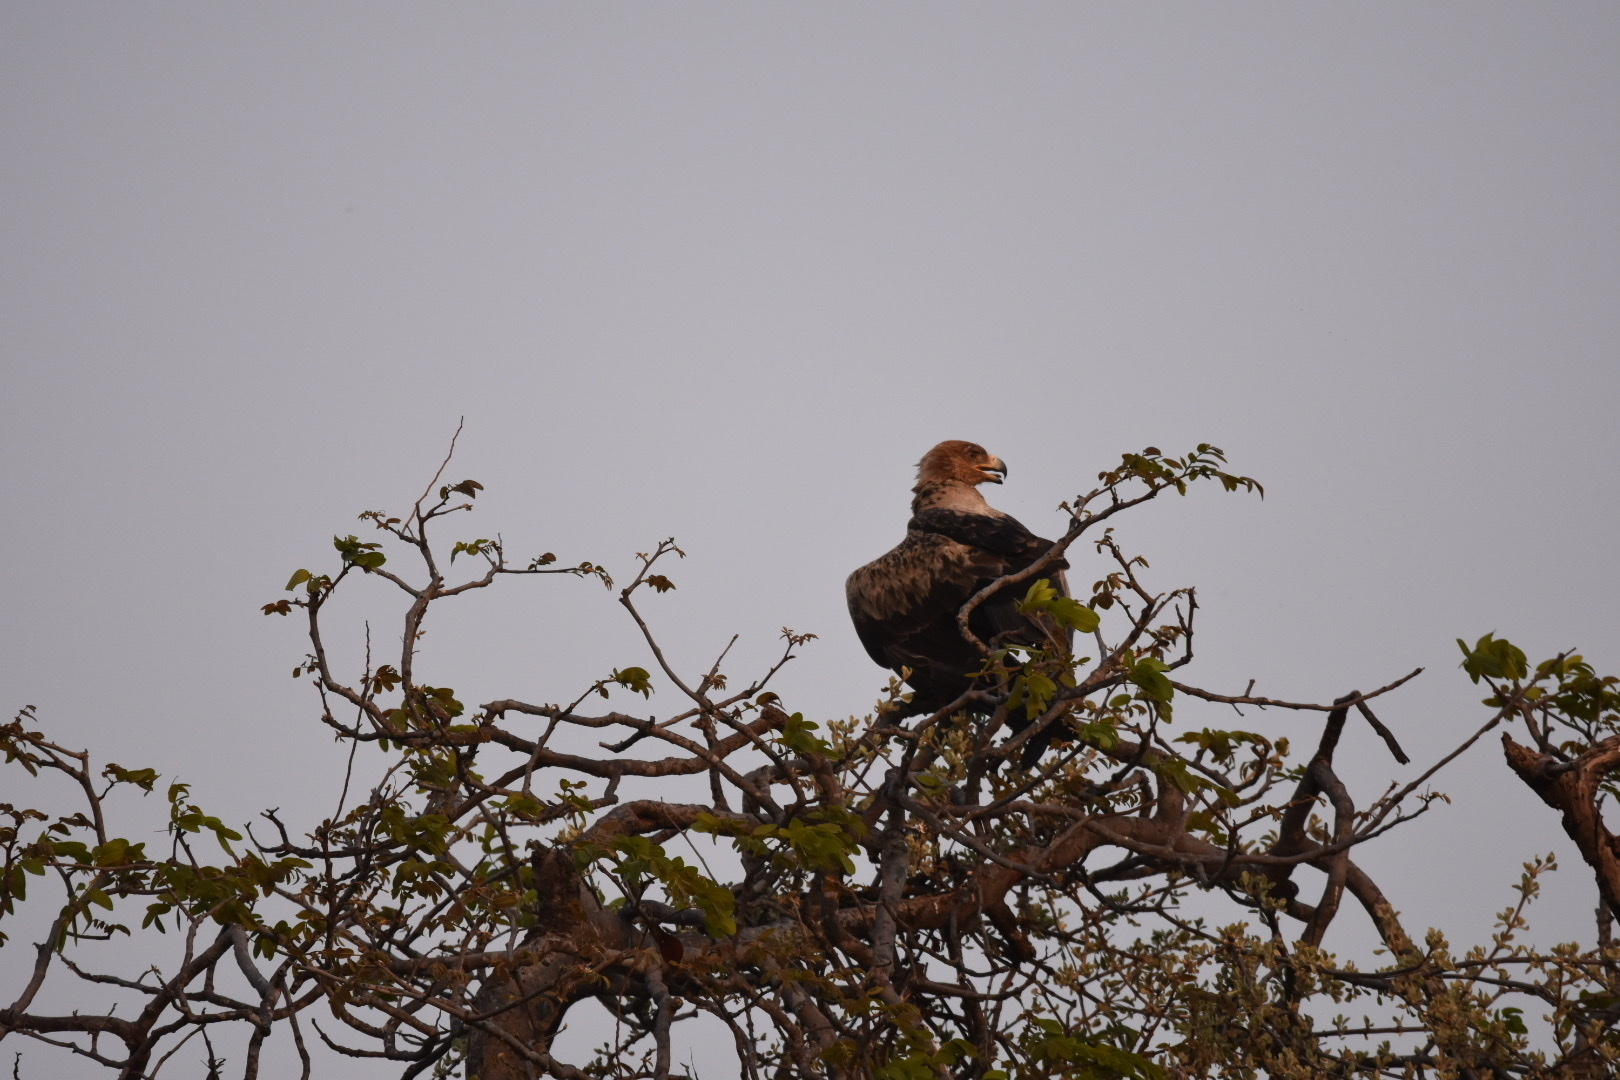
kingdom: Animalia
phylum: Chordata
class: Aves
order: Accipitriformes
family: Accipitridae
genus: Aquila
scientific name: Aquila rapax
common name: Tawny eagle
